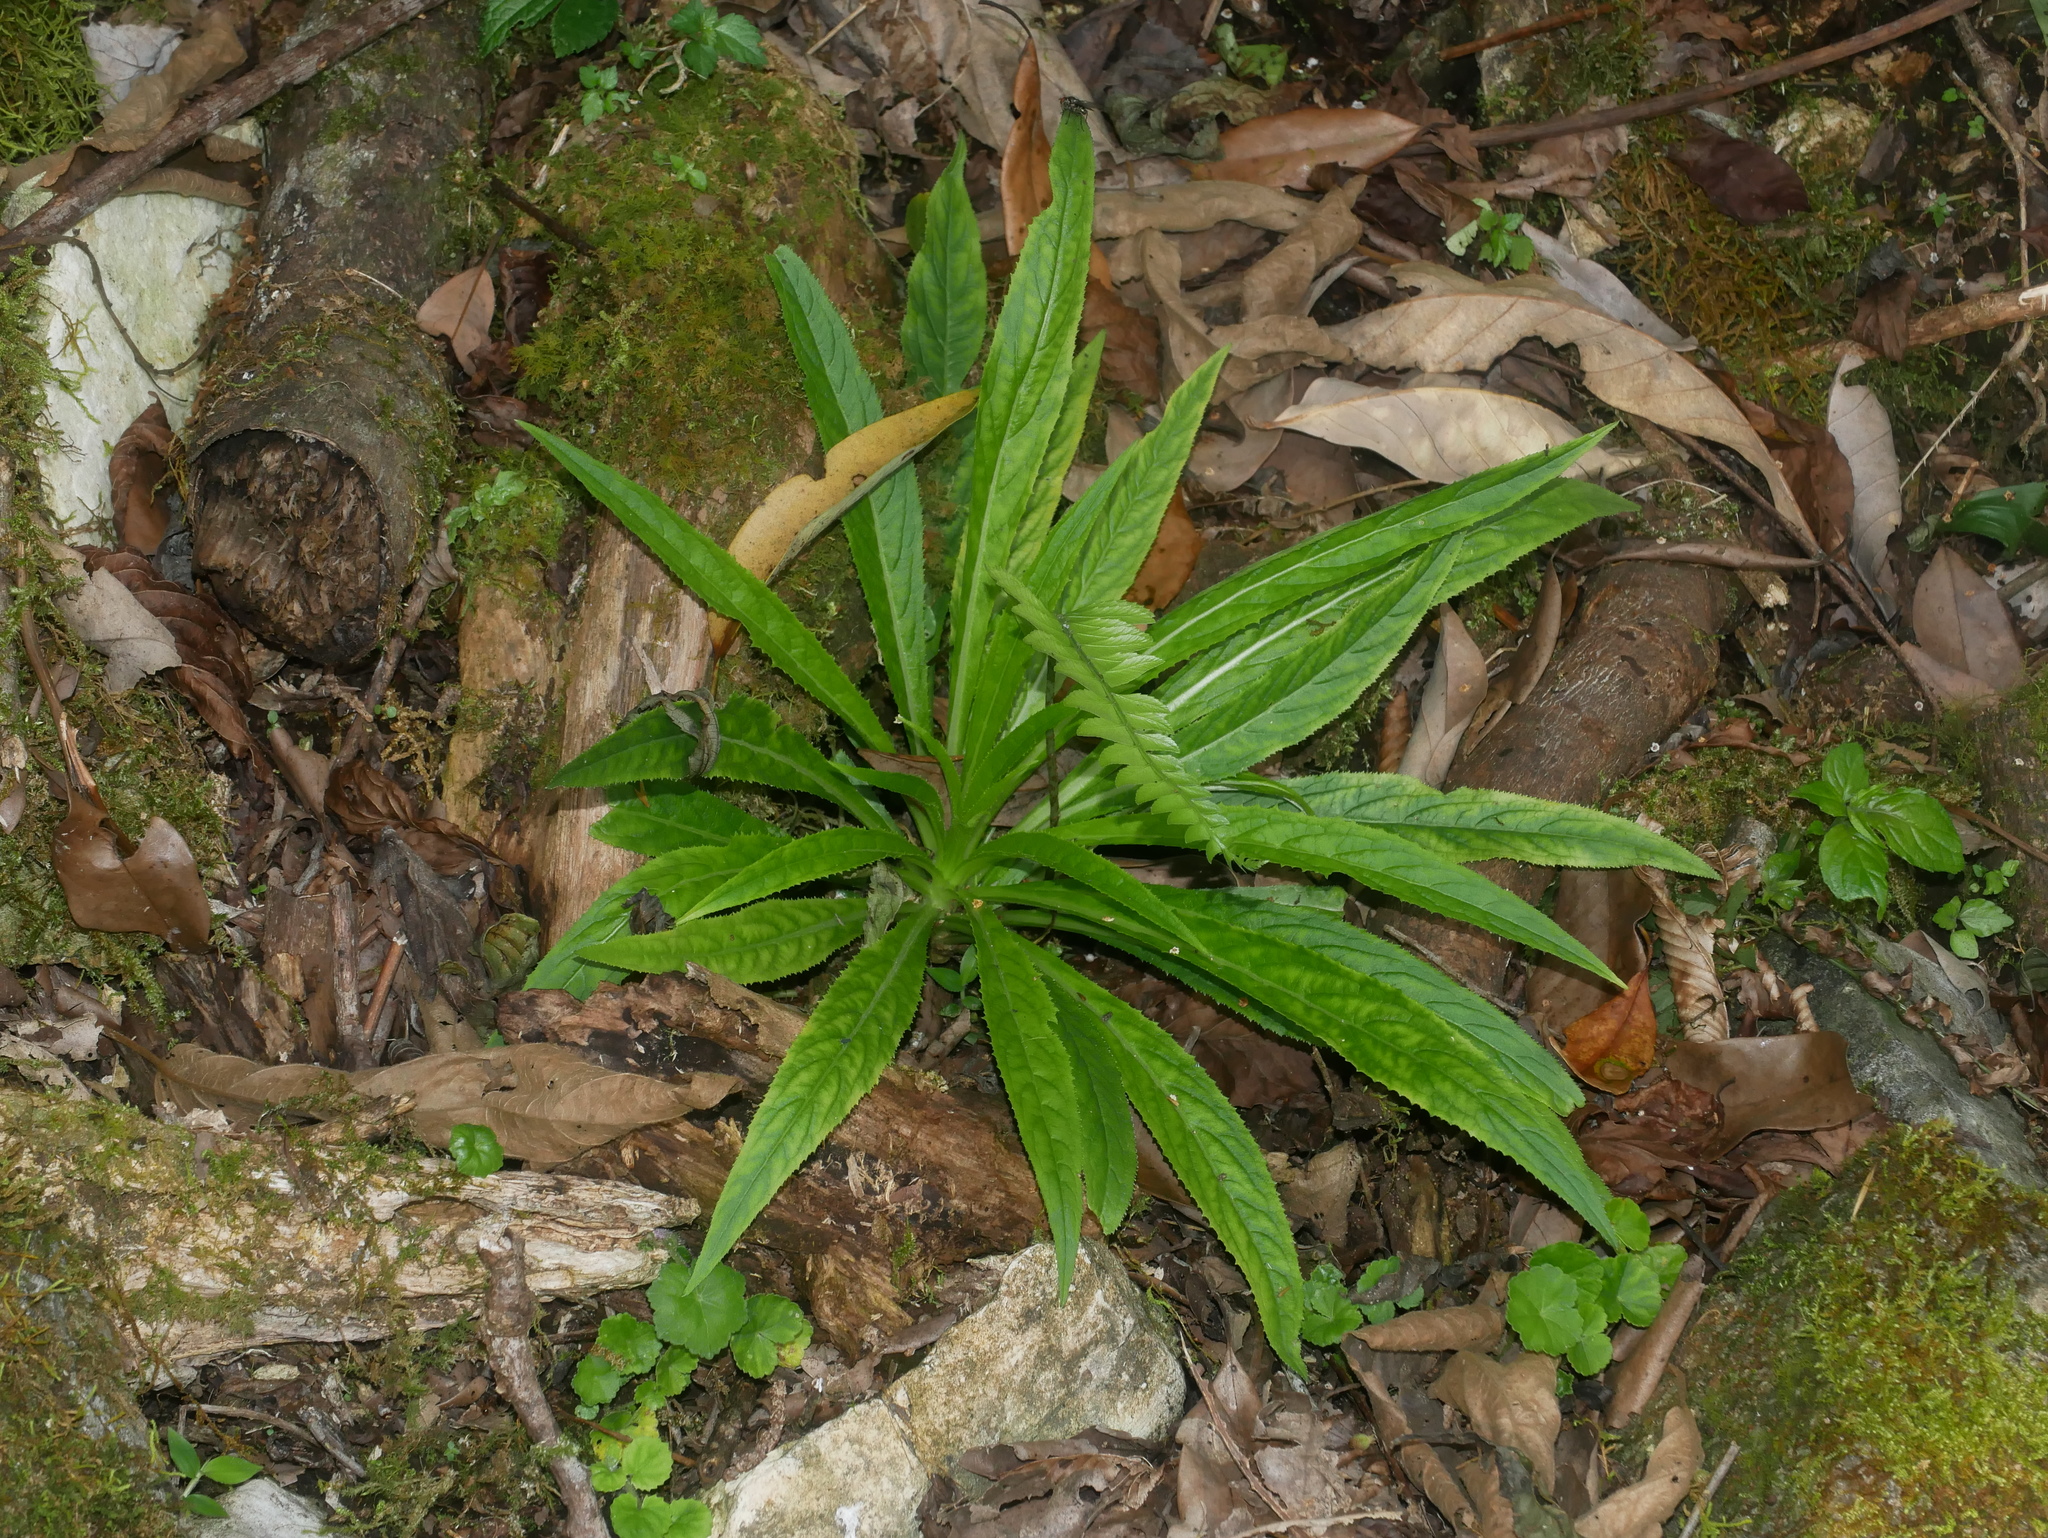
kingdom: Plantae
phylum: Tracheophyta
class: Magnoliopsida
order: Asterales
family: Campanulaceae
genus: Lobelia
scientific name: Lobelia seguinii
